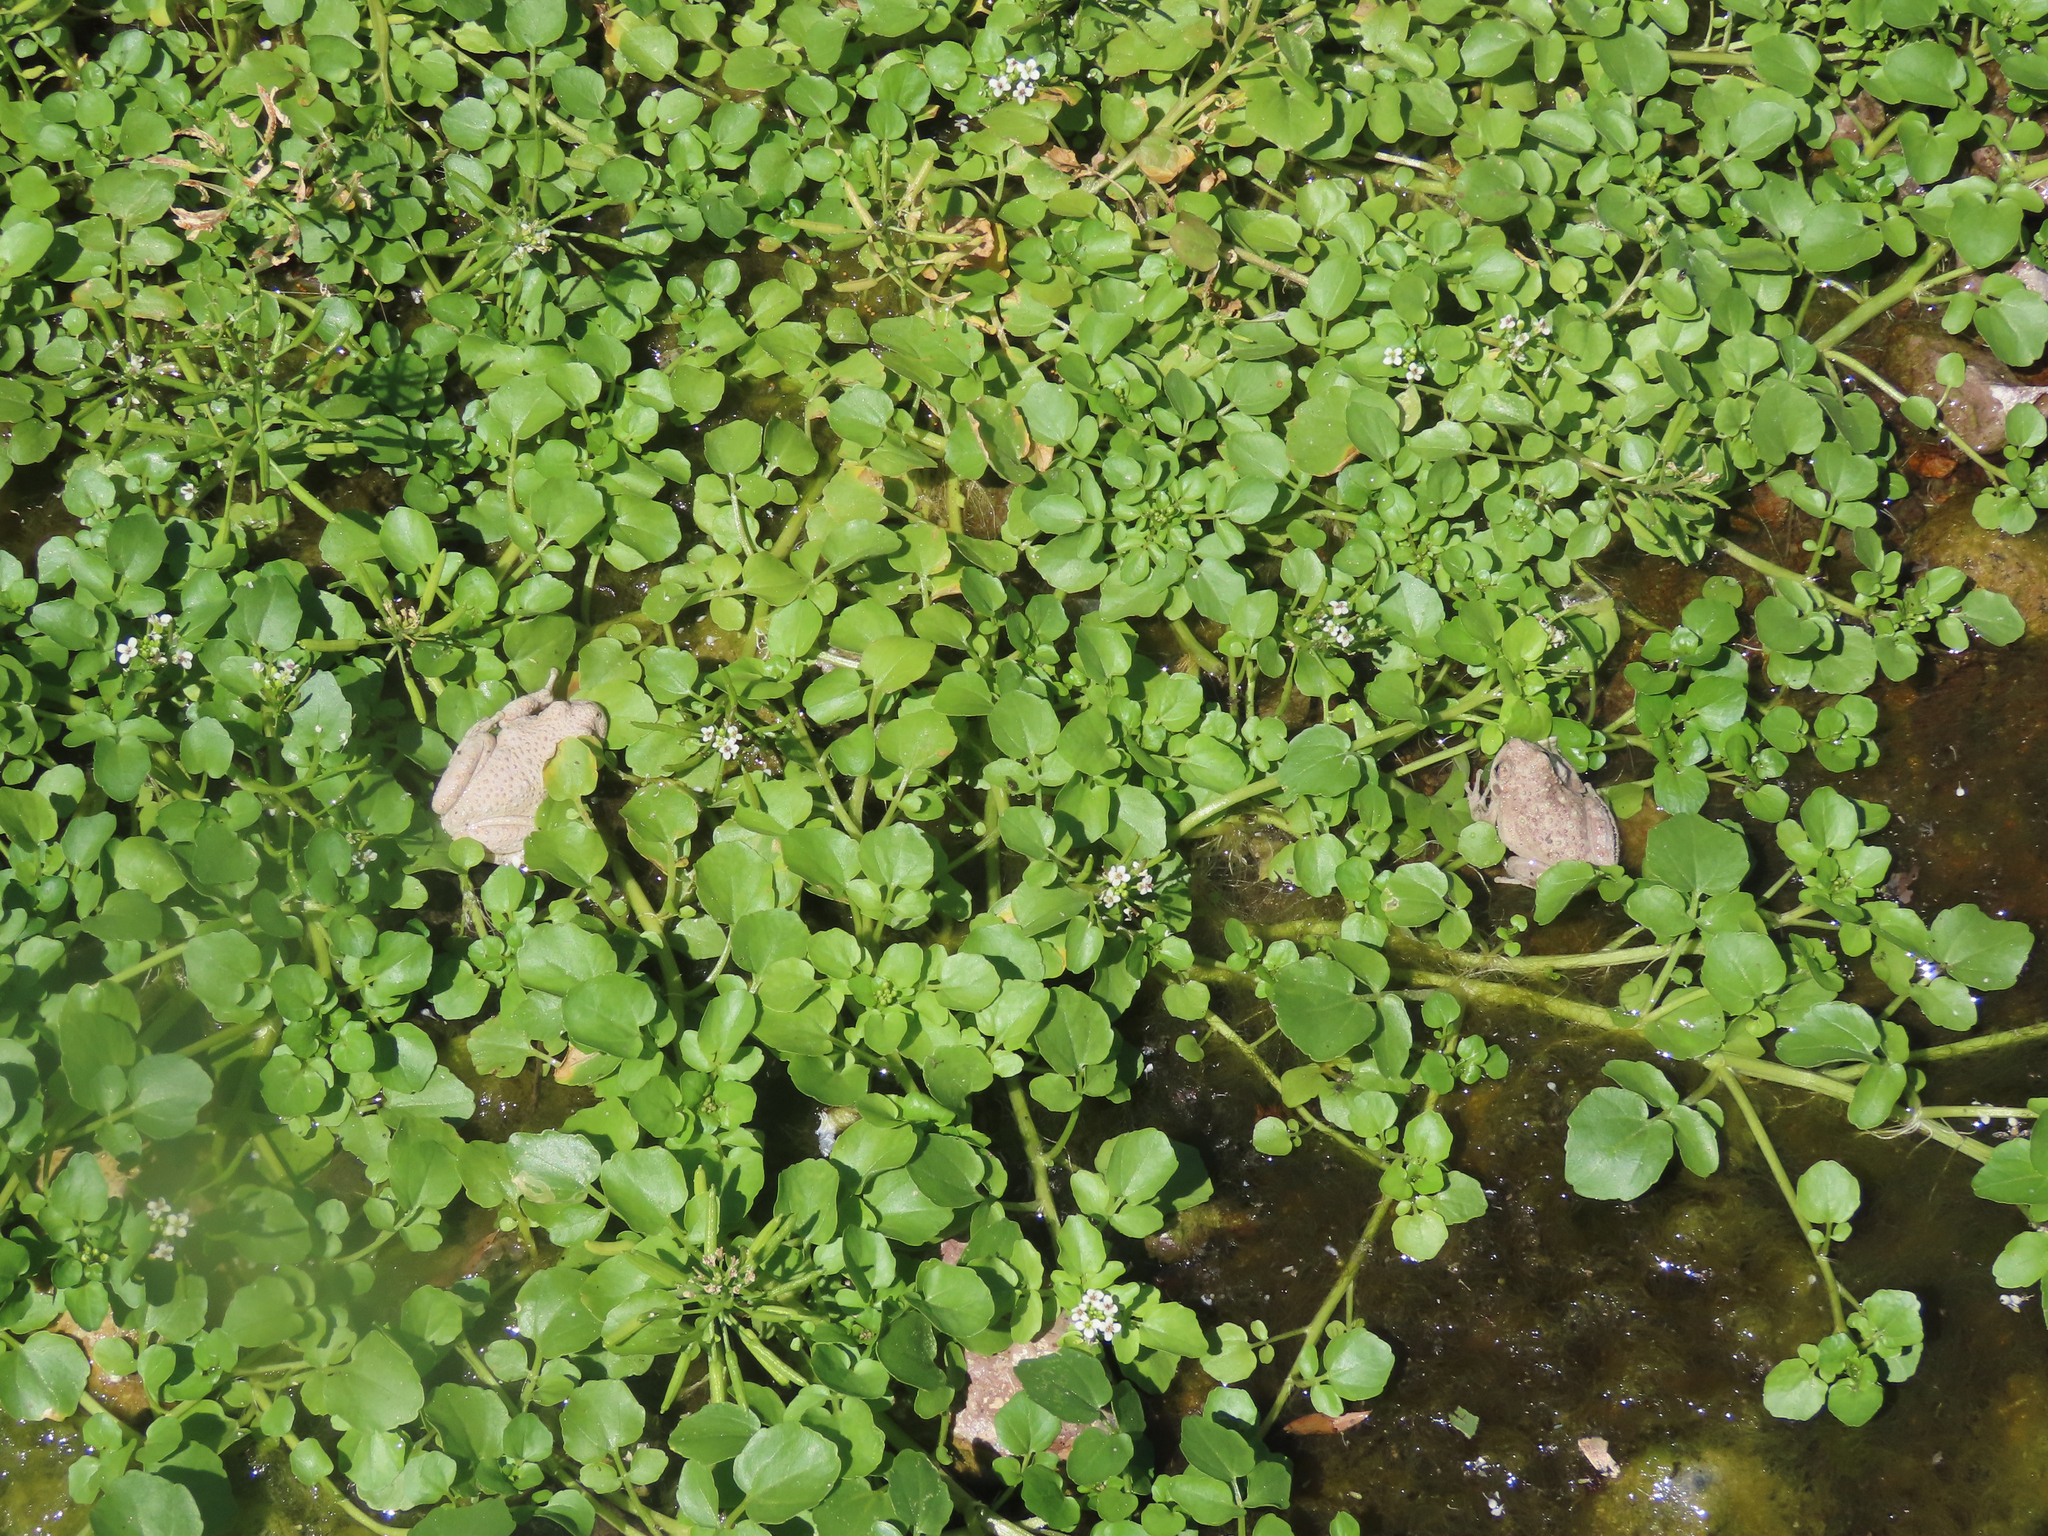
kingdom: Animalia
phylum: Chordata
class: Amphibia
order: Anura
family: Hylidae
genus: Dryophytes
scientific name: Dryophytes arenicolor
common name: Canyon treefrog
